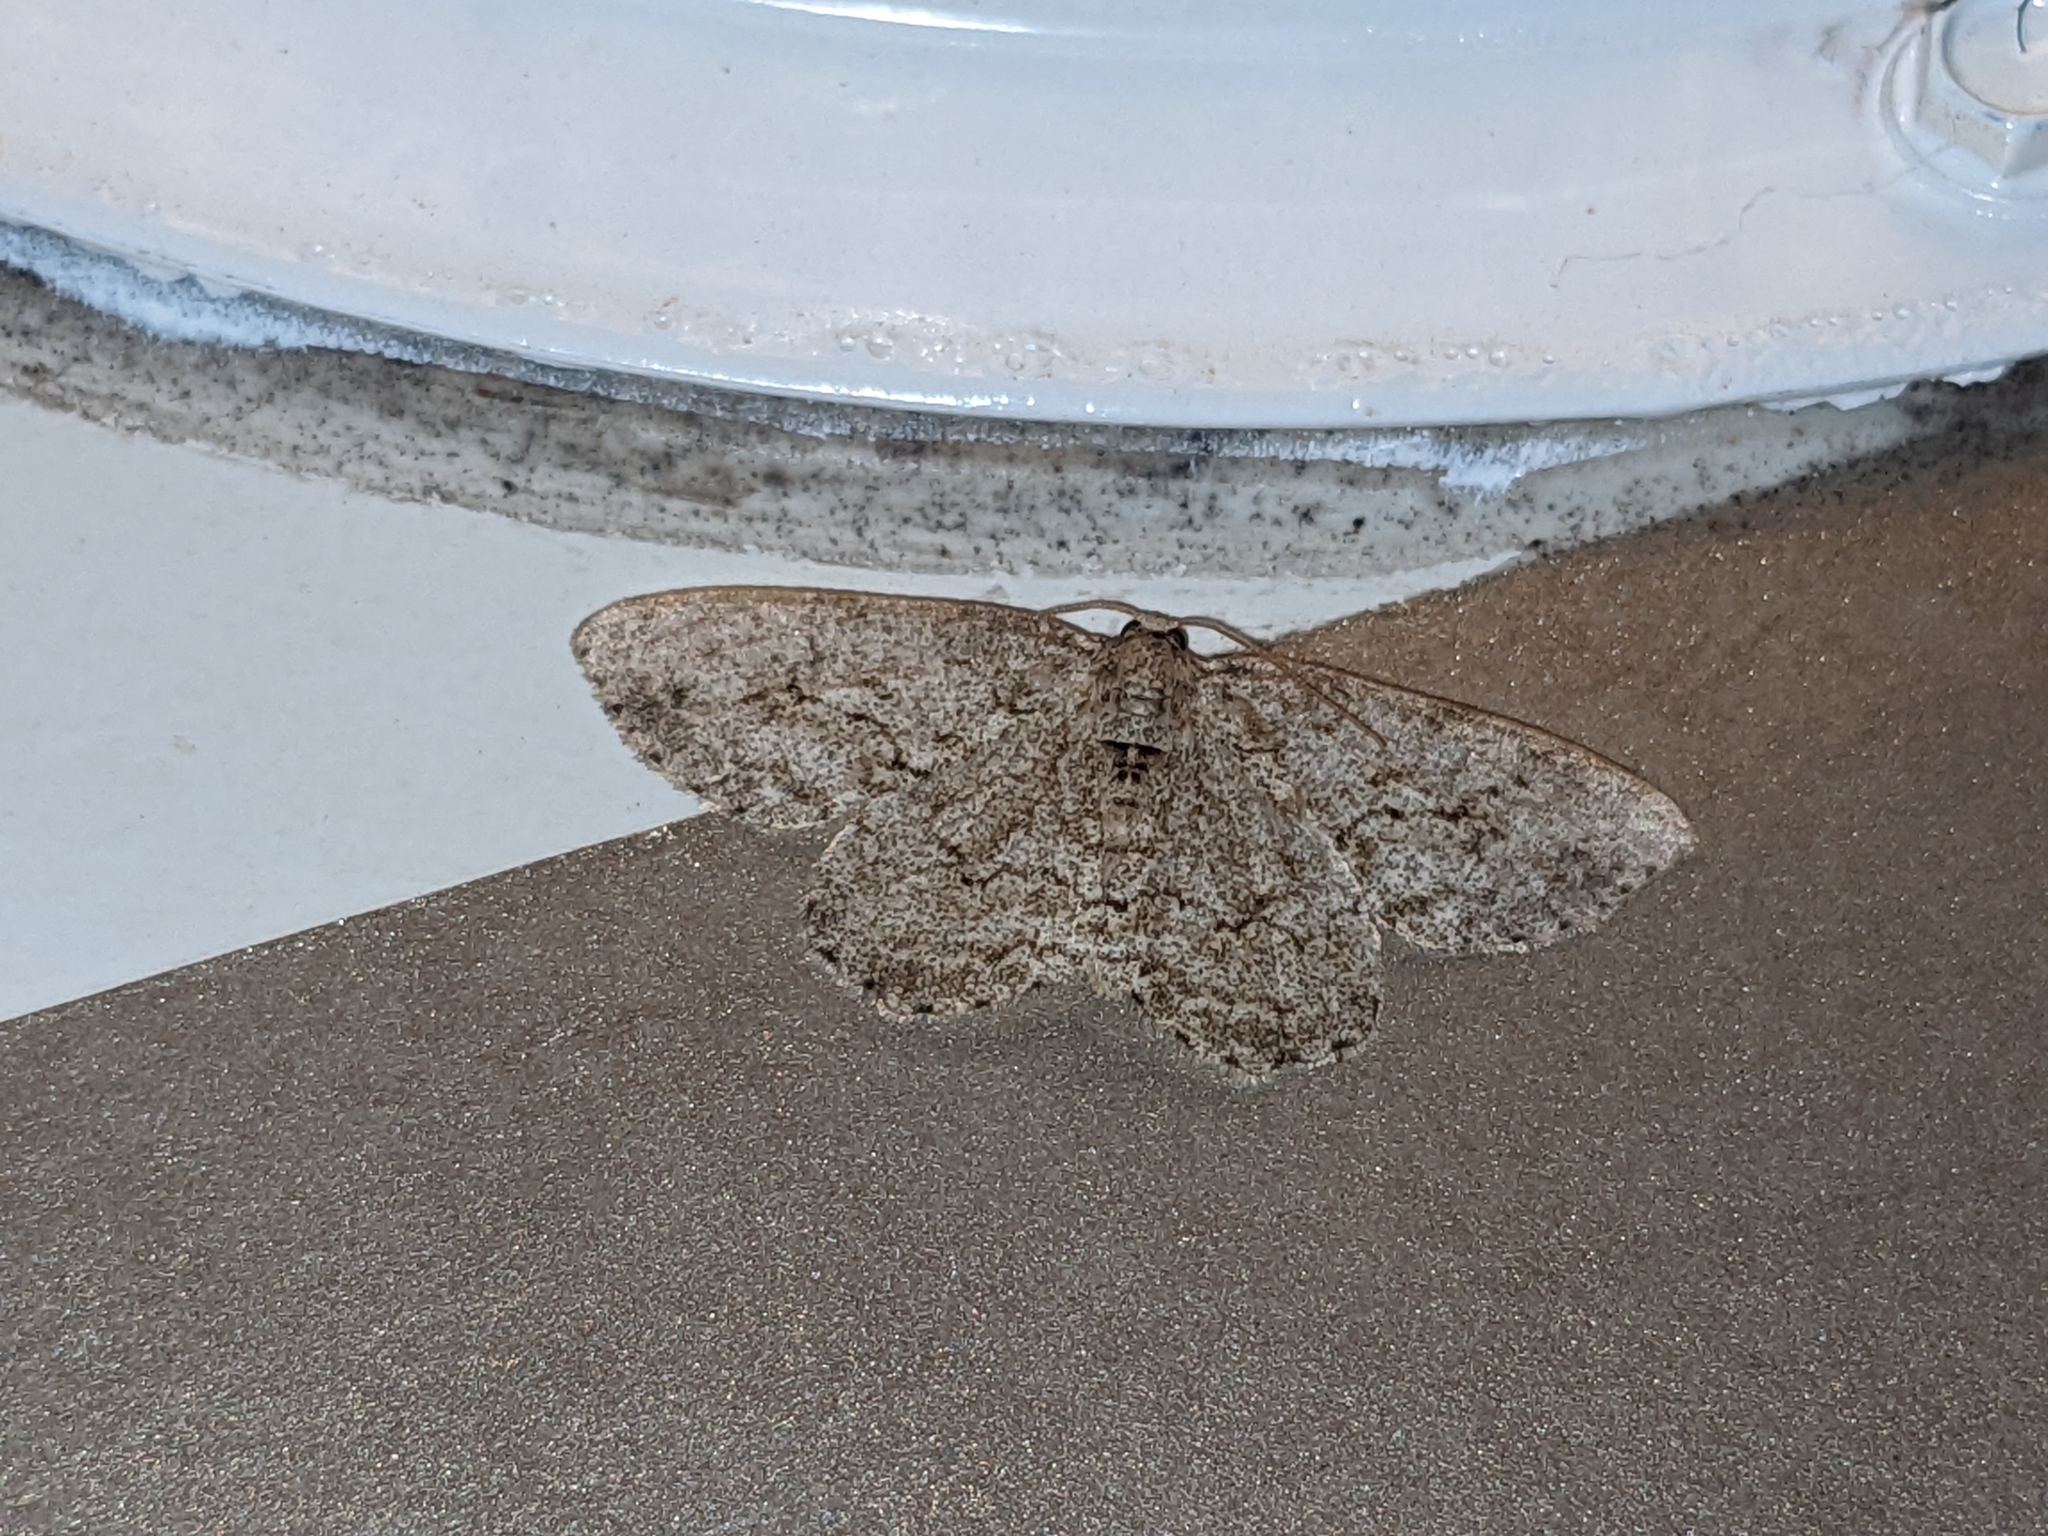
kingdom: Animalia
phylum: Arthropoda
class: Insecta
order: Lepidoptera
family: Geometridae
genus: Ectropis
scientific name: Ectropis crepuscularia
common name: Engrailed
